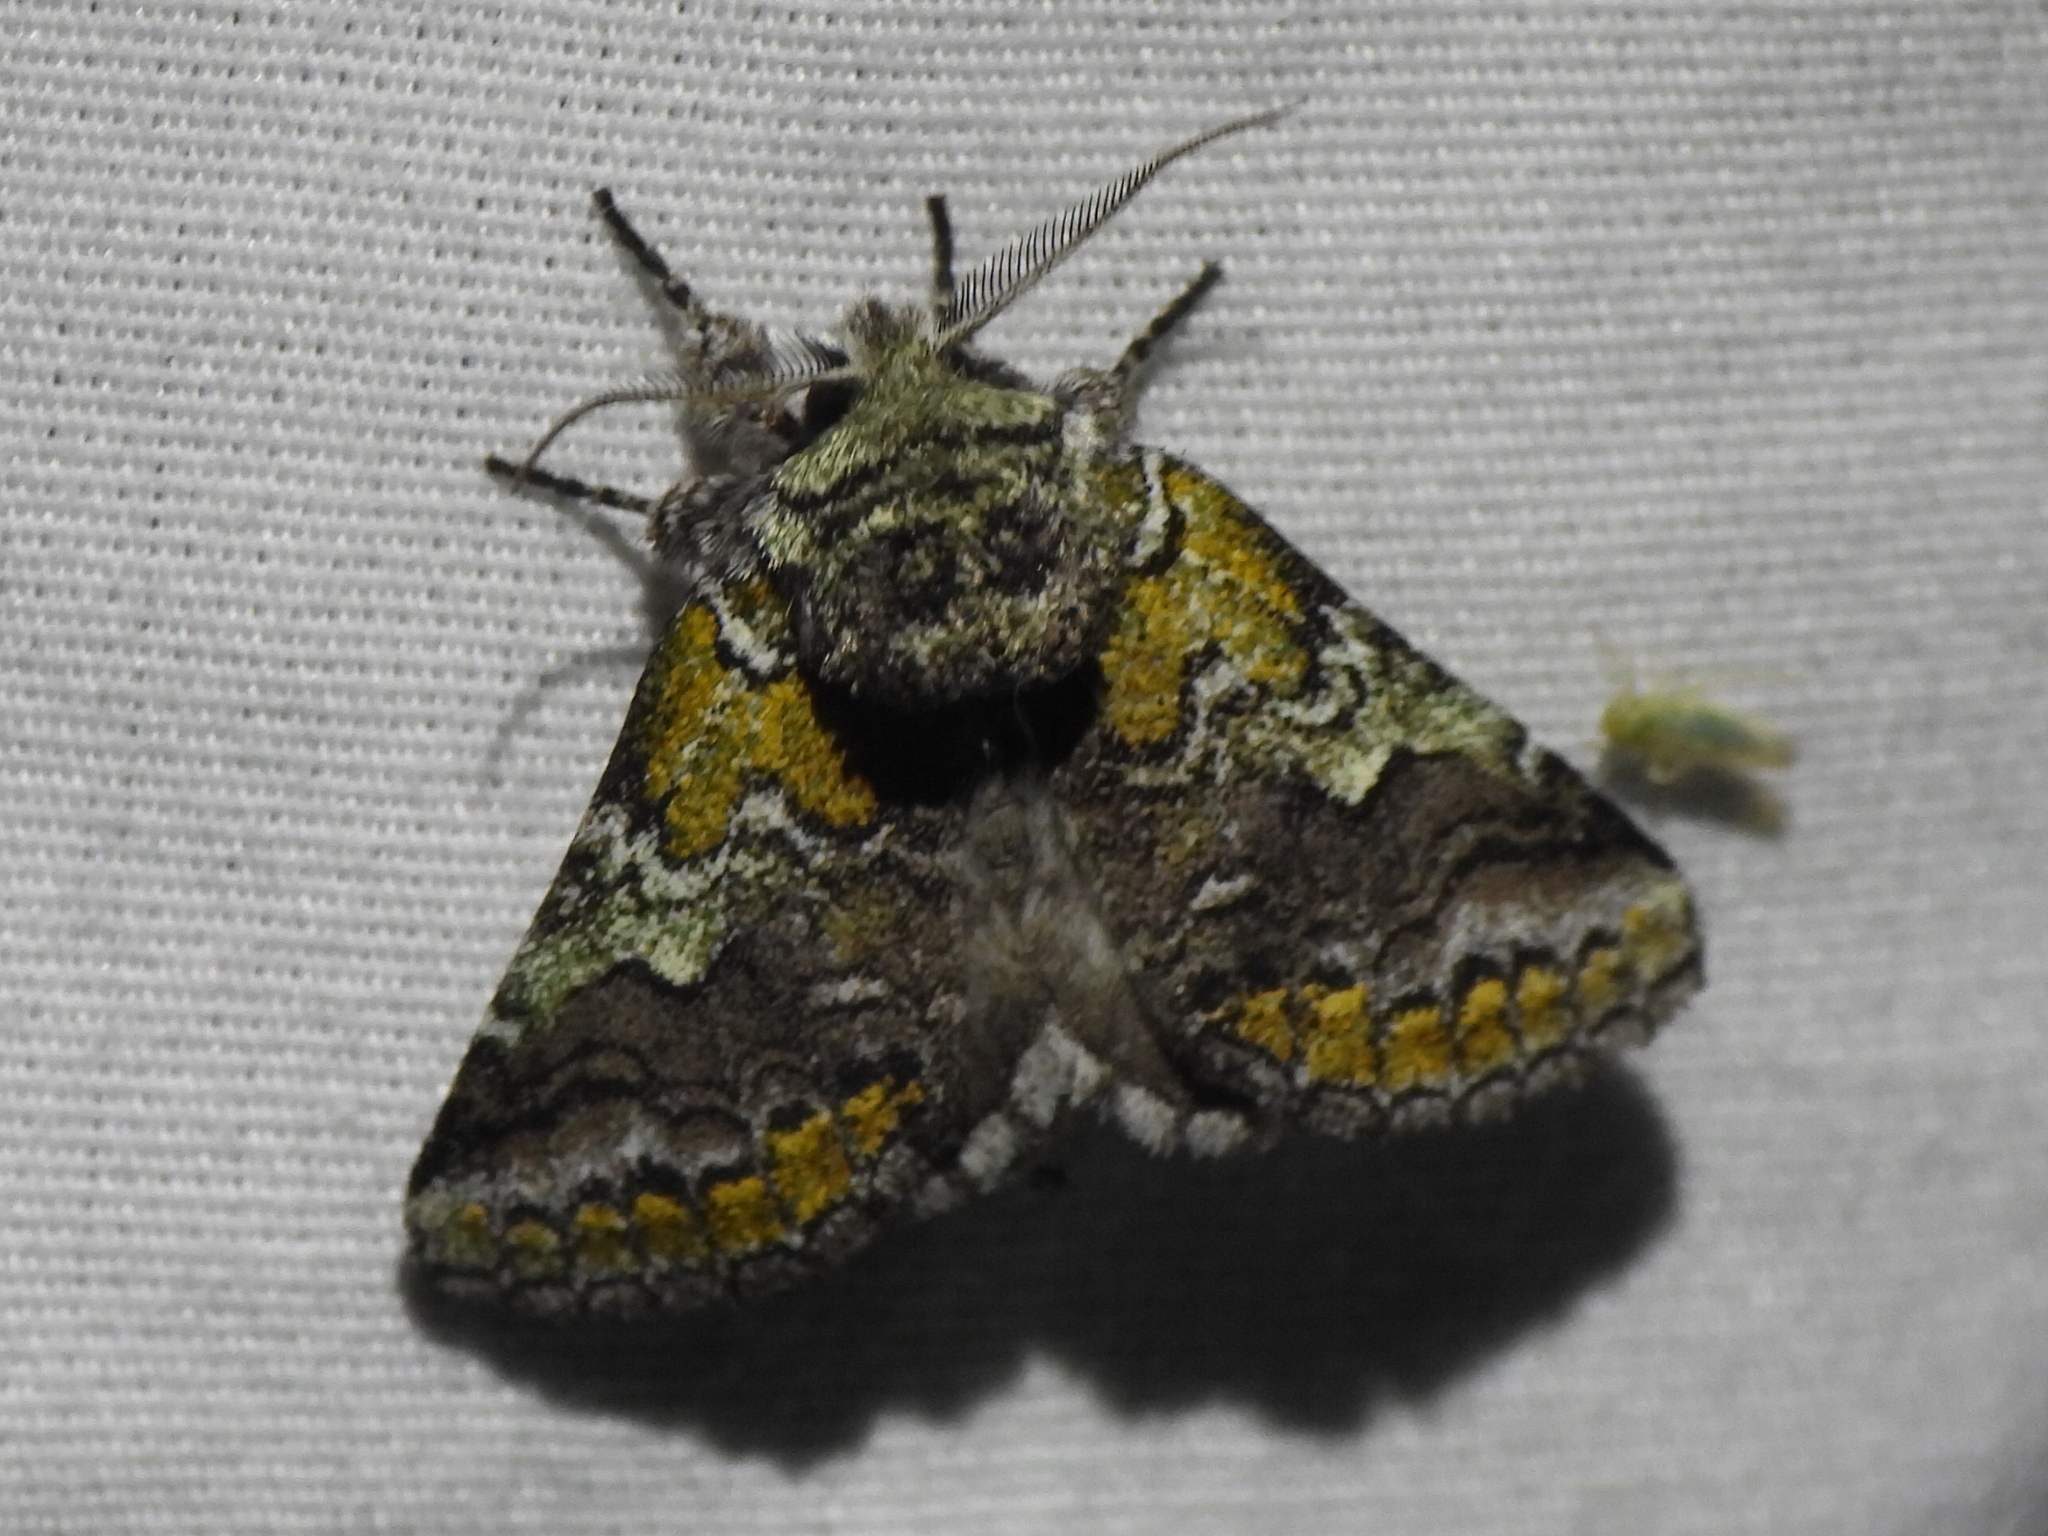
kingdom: Animalia
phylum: Arthropoda
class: Insecta
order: Lepidoptera
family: Notodontidae
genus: Litodonta
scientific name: Litodonta hydromeli
